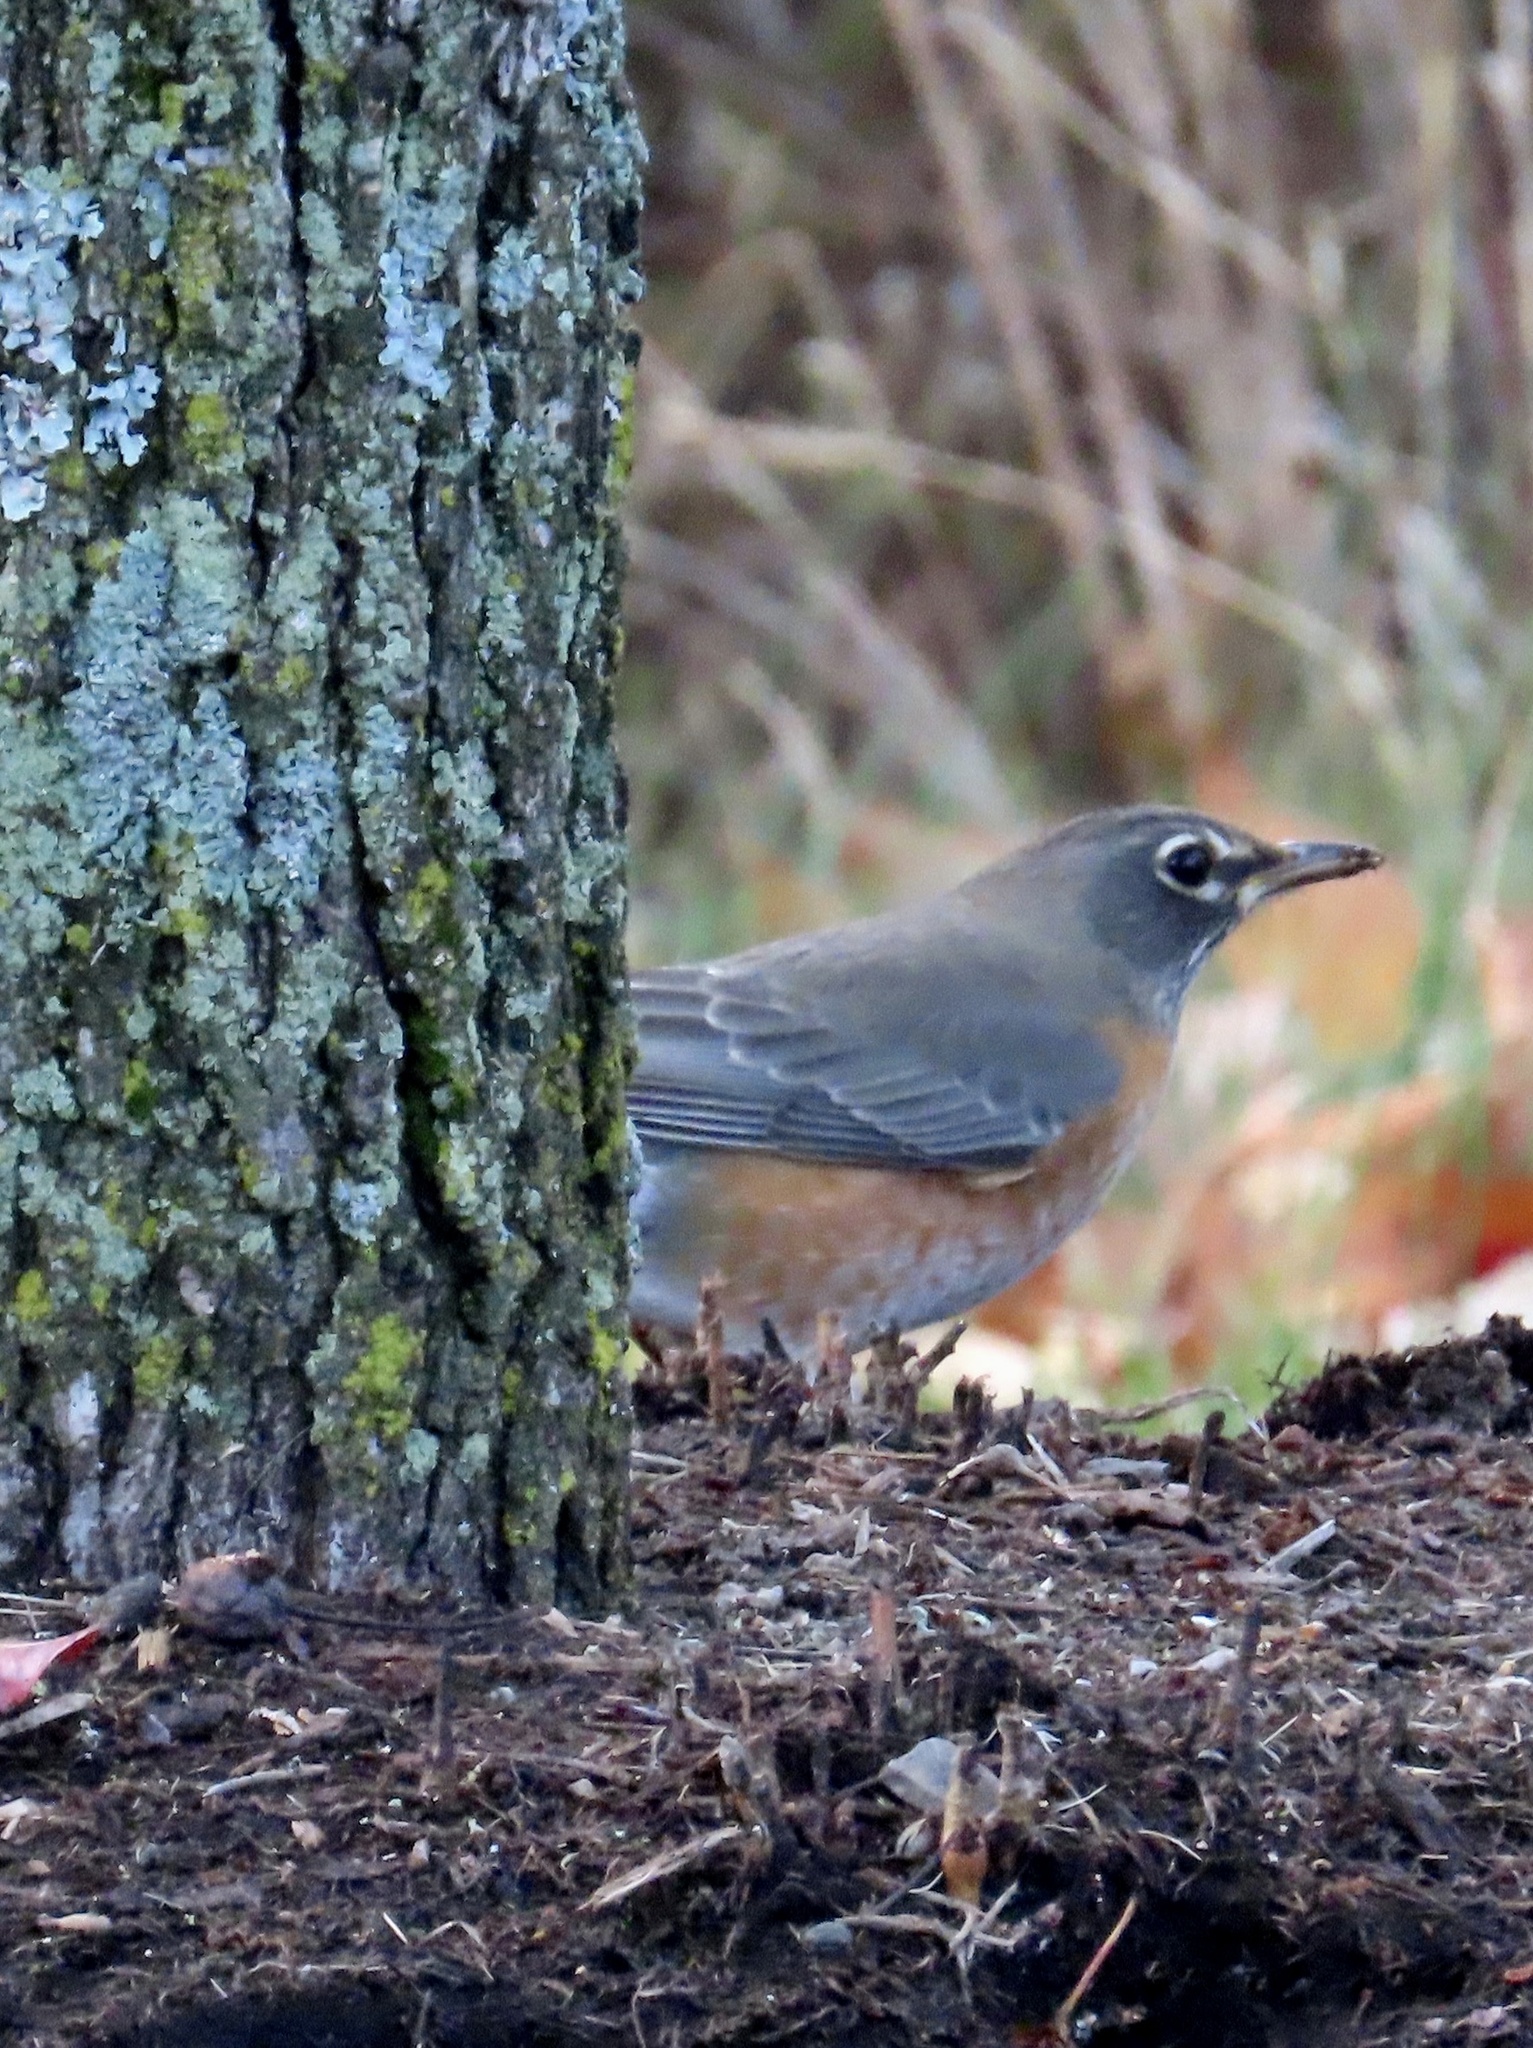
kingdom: Animalia
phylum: Chordata
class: Aves
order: Passeriformes
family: Turdidae
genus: Turdus
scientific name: Turdus migratorius
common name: American robin
